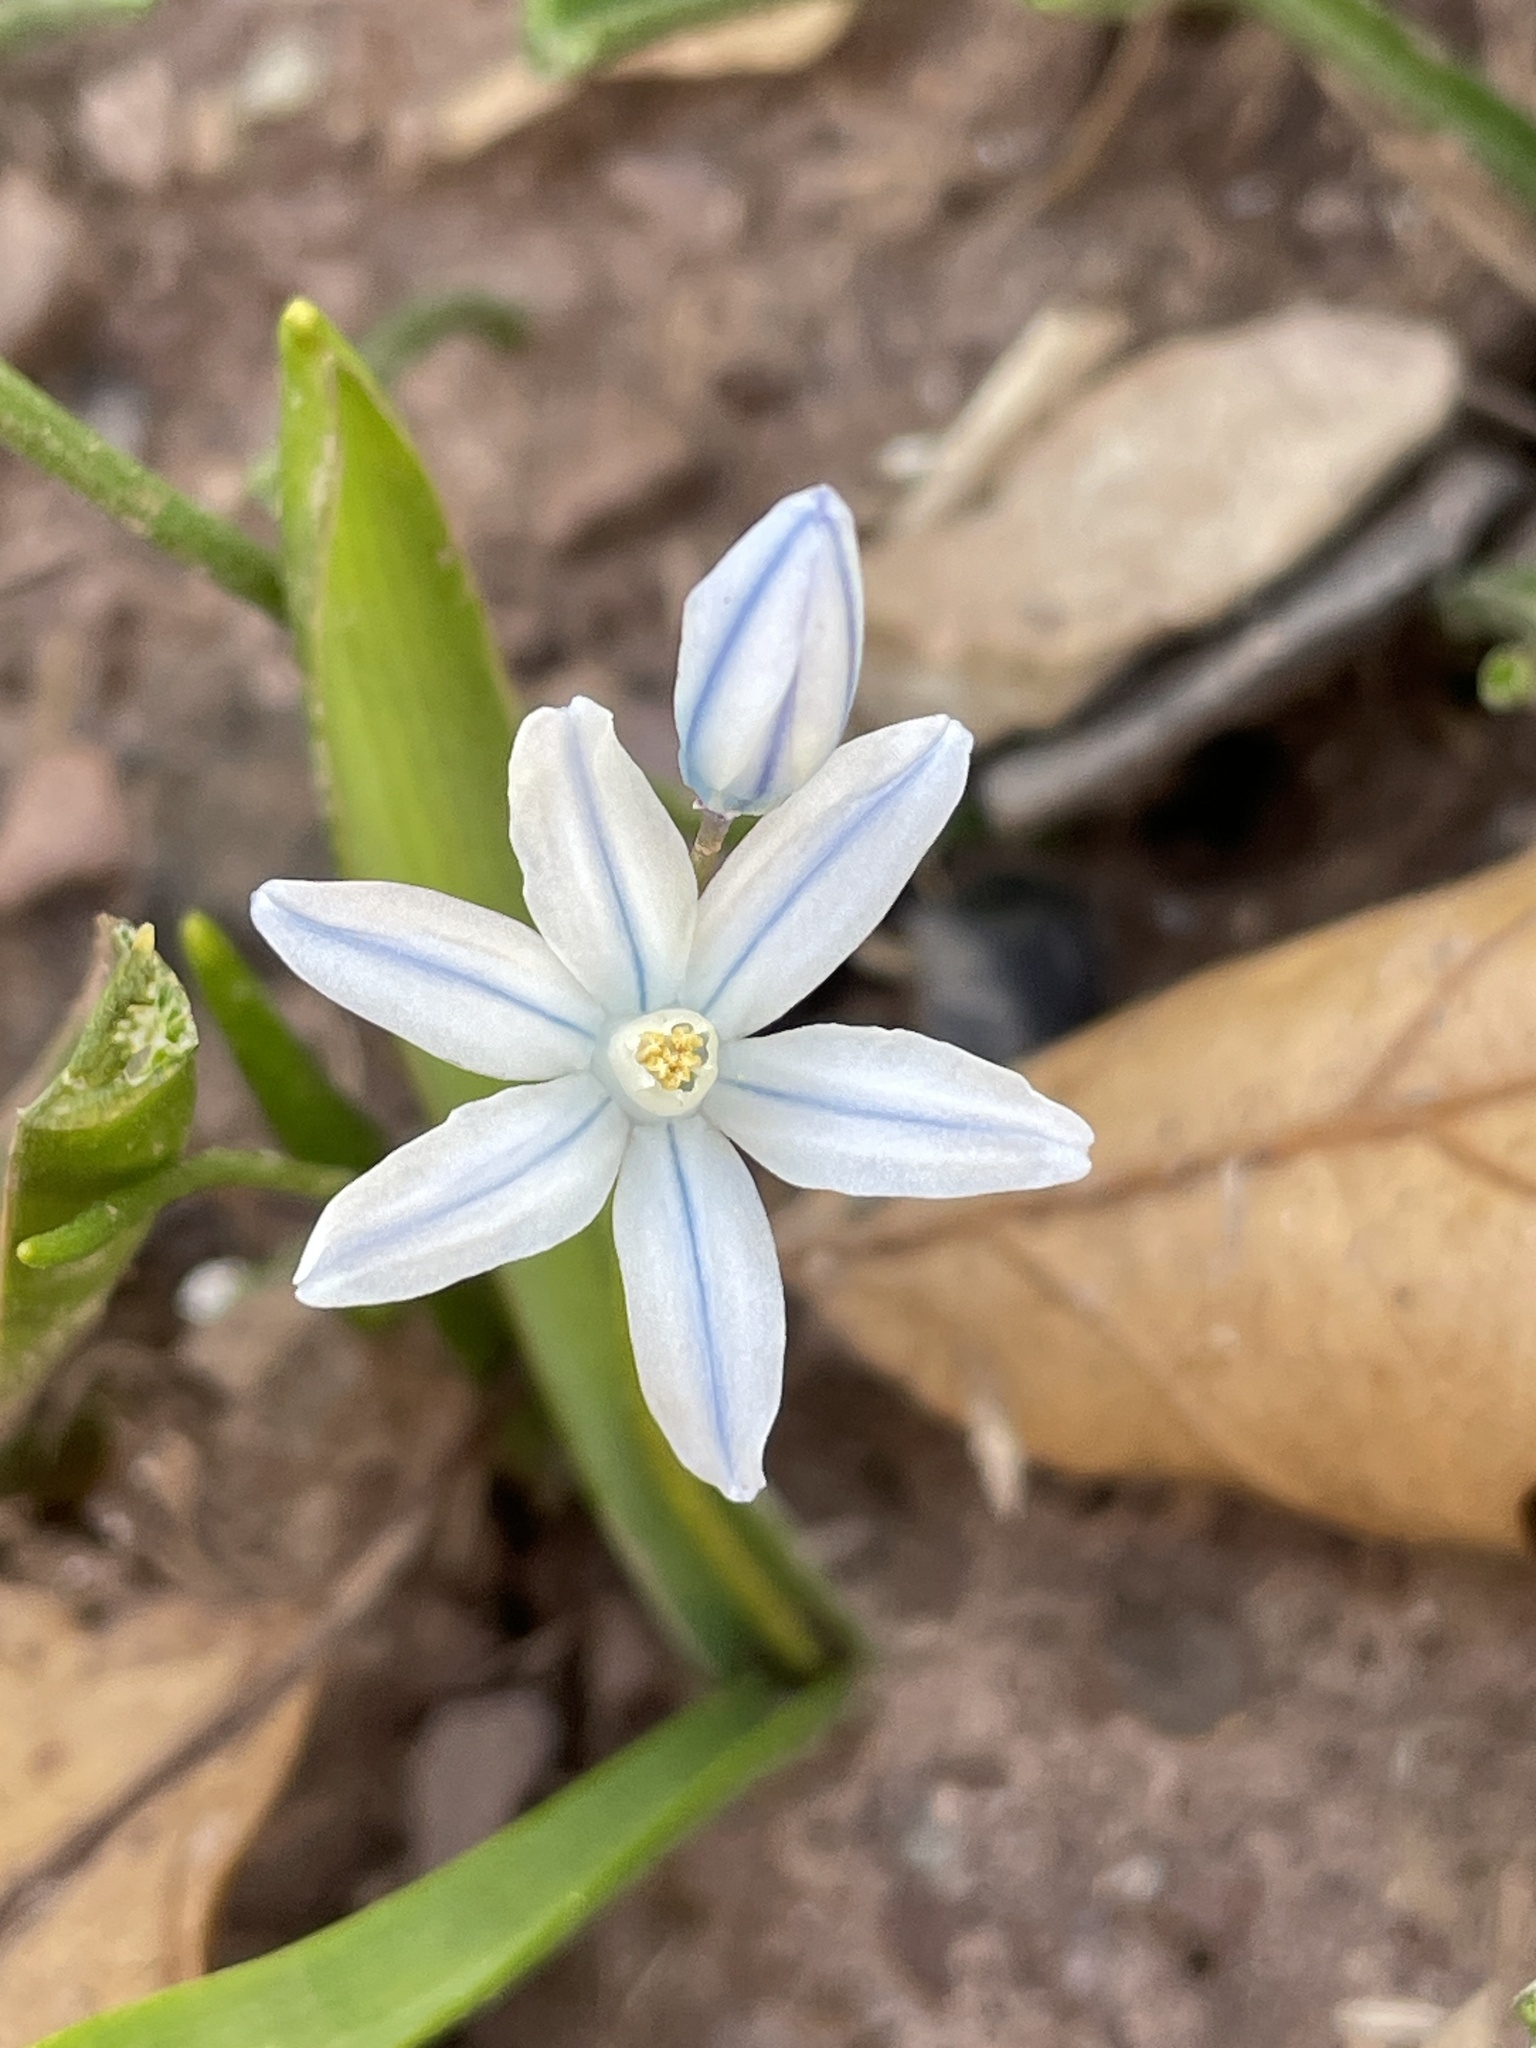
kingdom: Plantae
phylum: Tracheophyta
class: Liliopsida
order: Asparagales
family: Asparagaceae
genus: Puschkinia
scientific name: Puschkinia scilloides
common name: Striped squill
